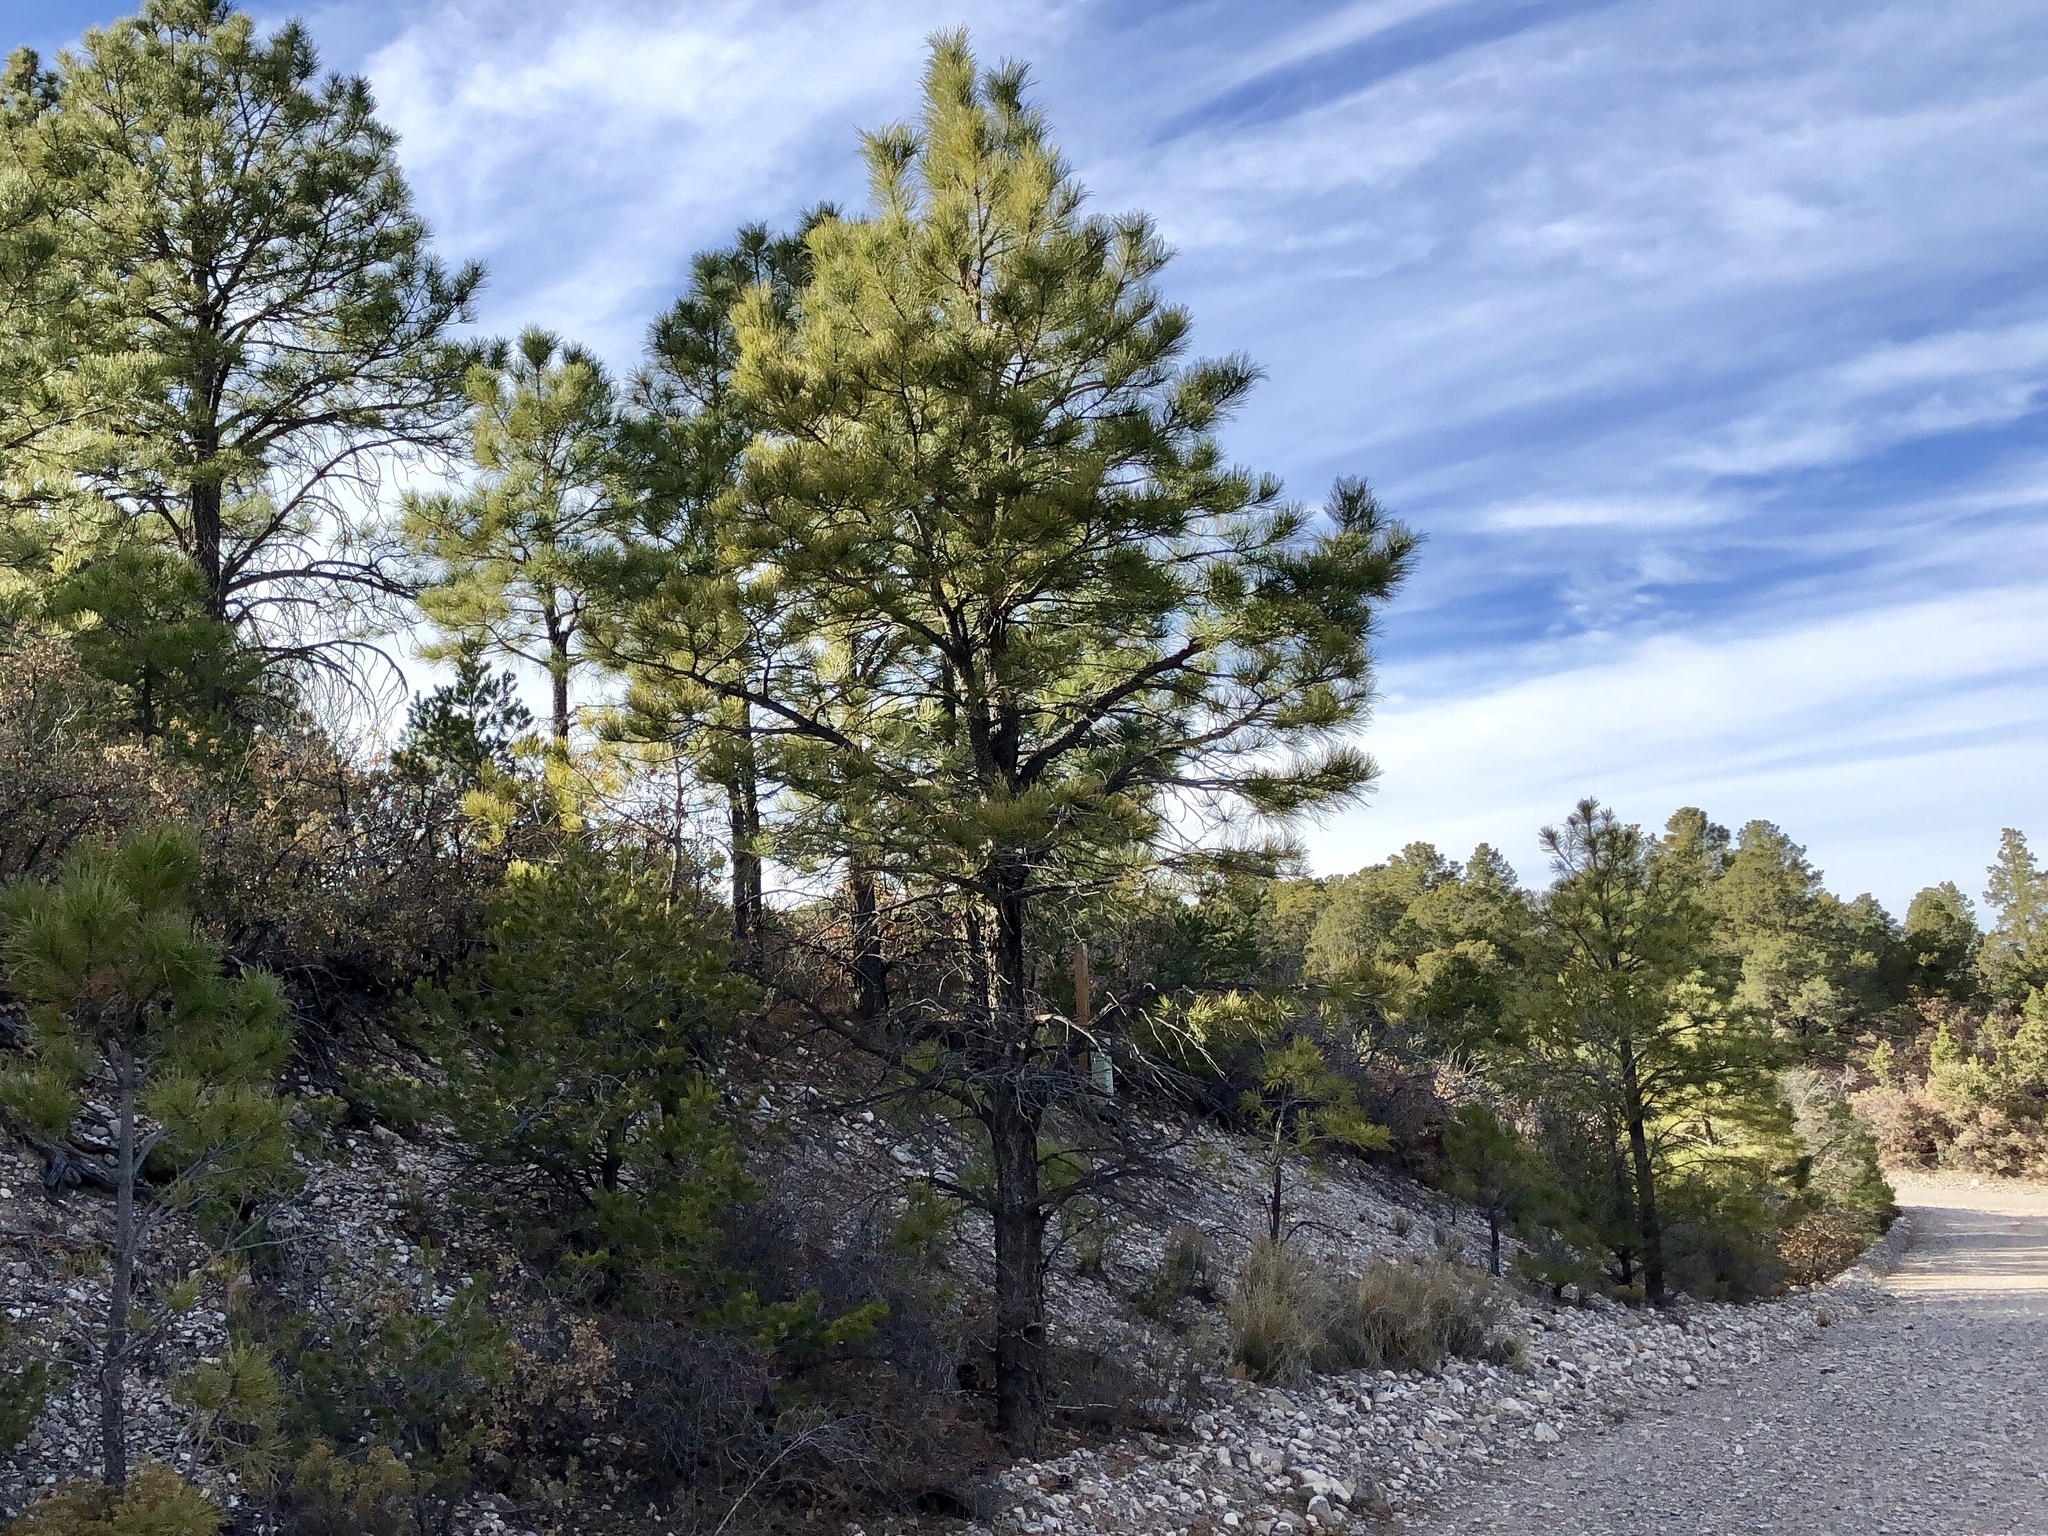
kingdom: Plantae
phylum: Tracheophyta
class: Pinopsida
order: Pinales
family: Pinaceae
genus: Pinus
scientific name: Pinus ponderosa
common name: Western yellow-pine
